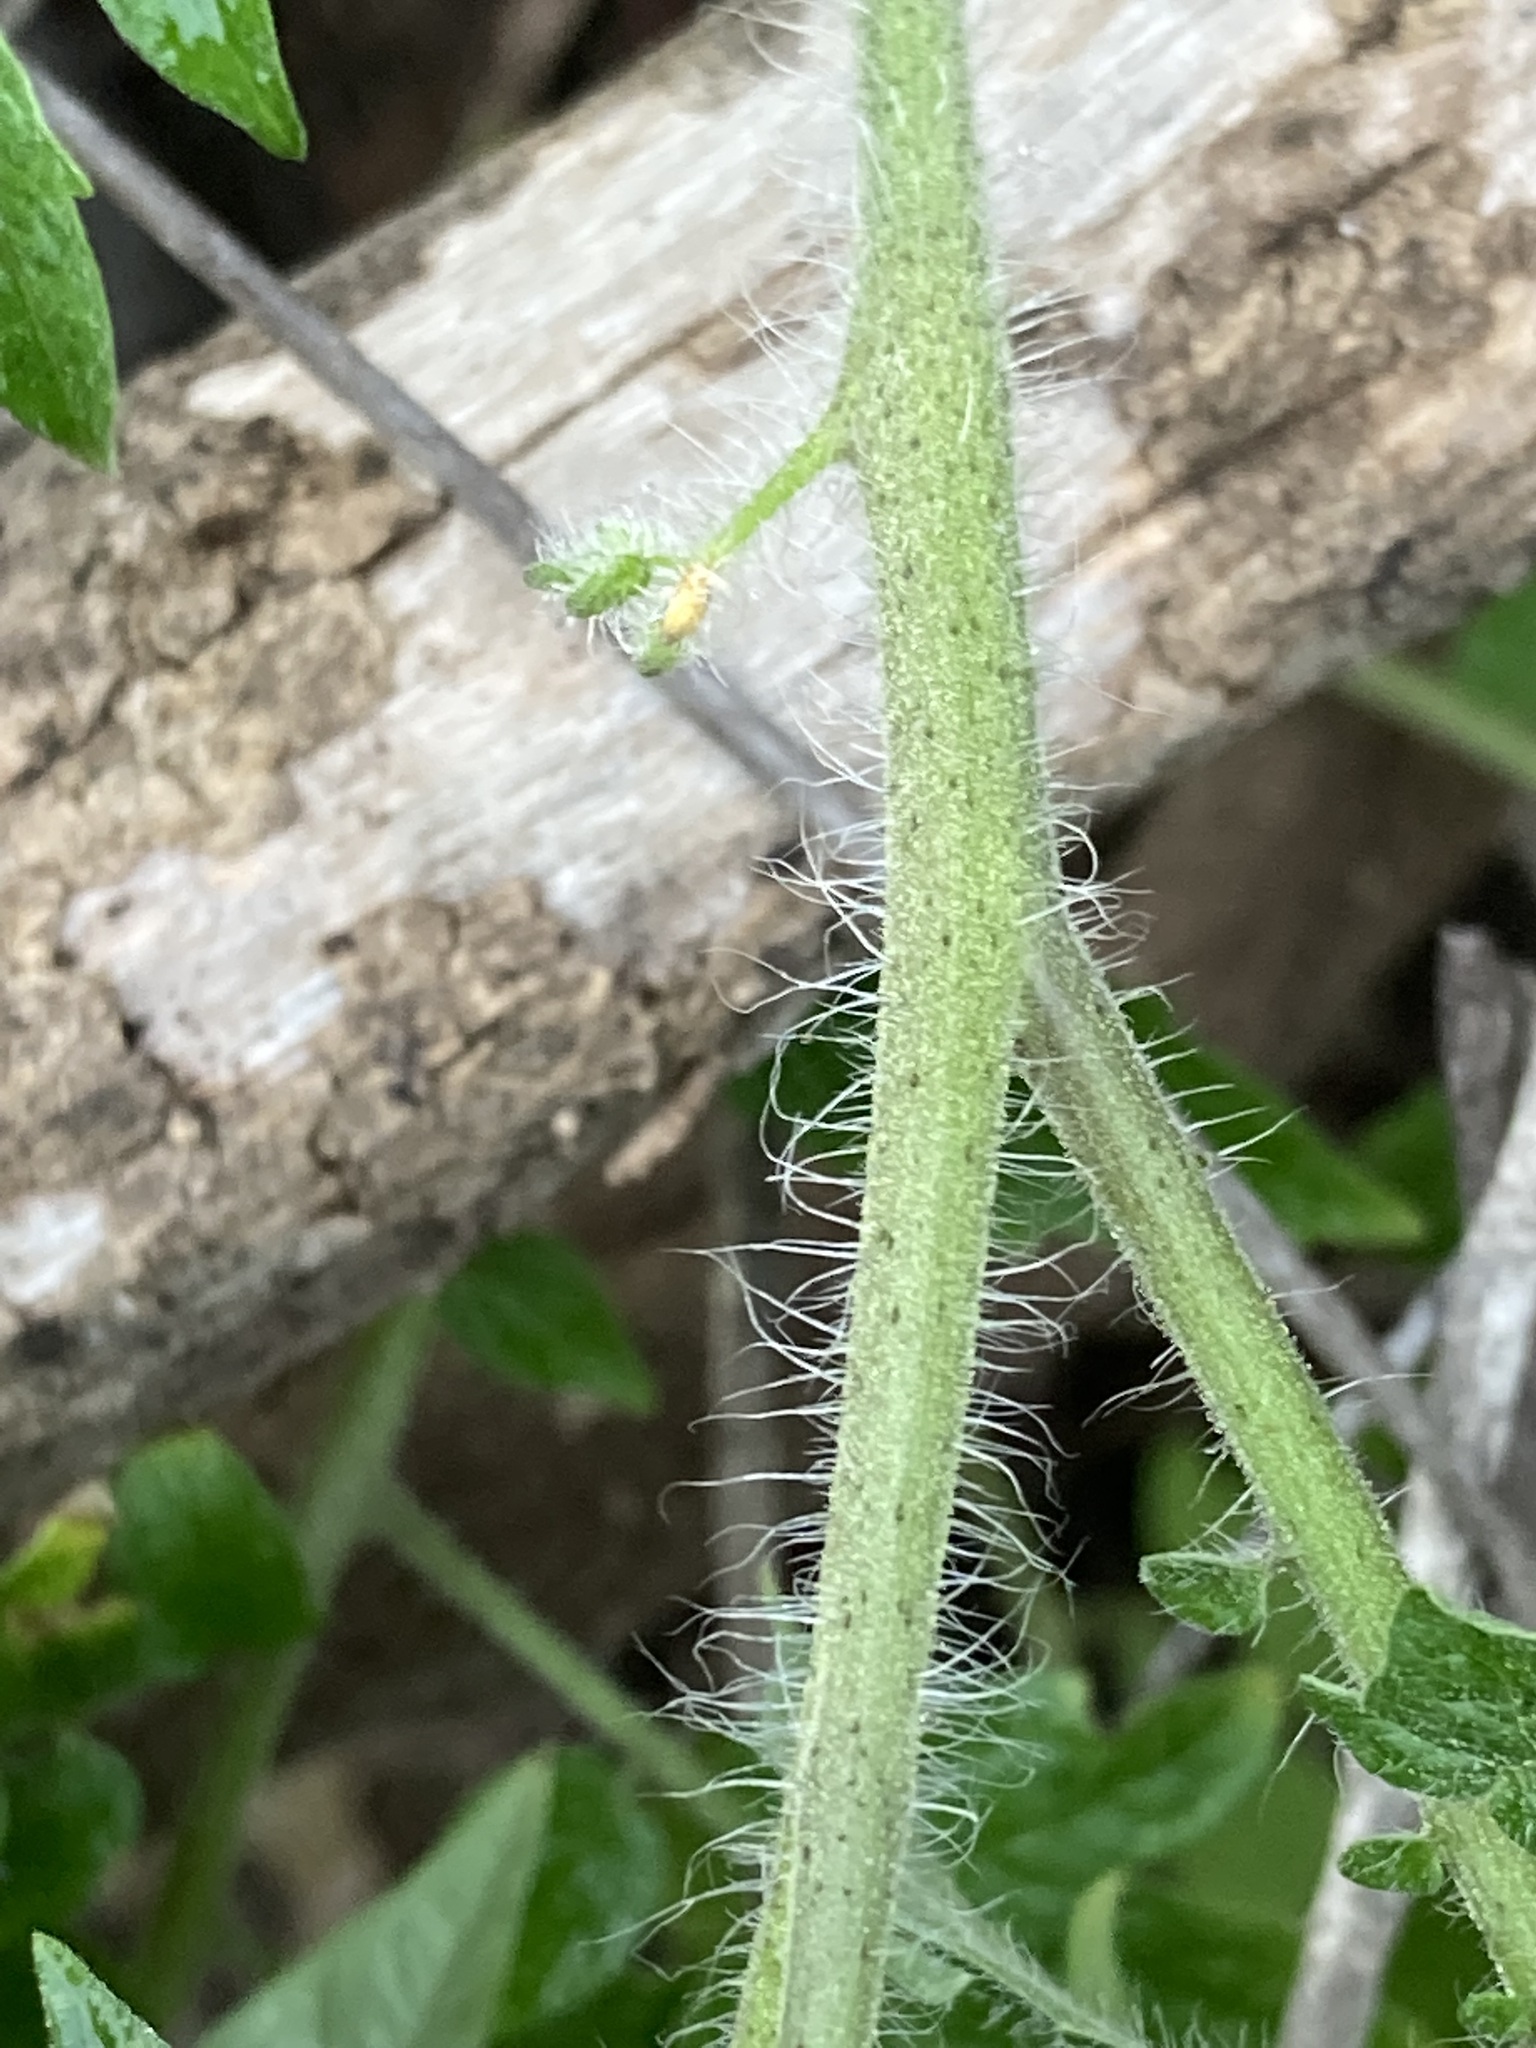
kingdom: Plantae
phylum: Tracheophyta
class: Magnoliopsida
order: Solanales
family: Solanaceae
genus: Solanum
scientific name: Solanum lycopersicum
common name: Garden tomato
